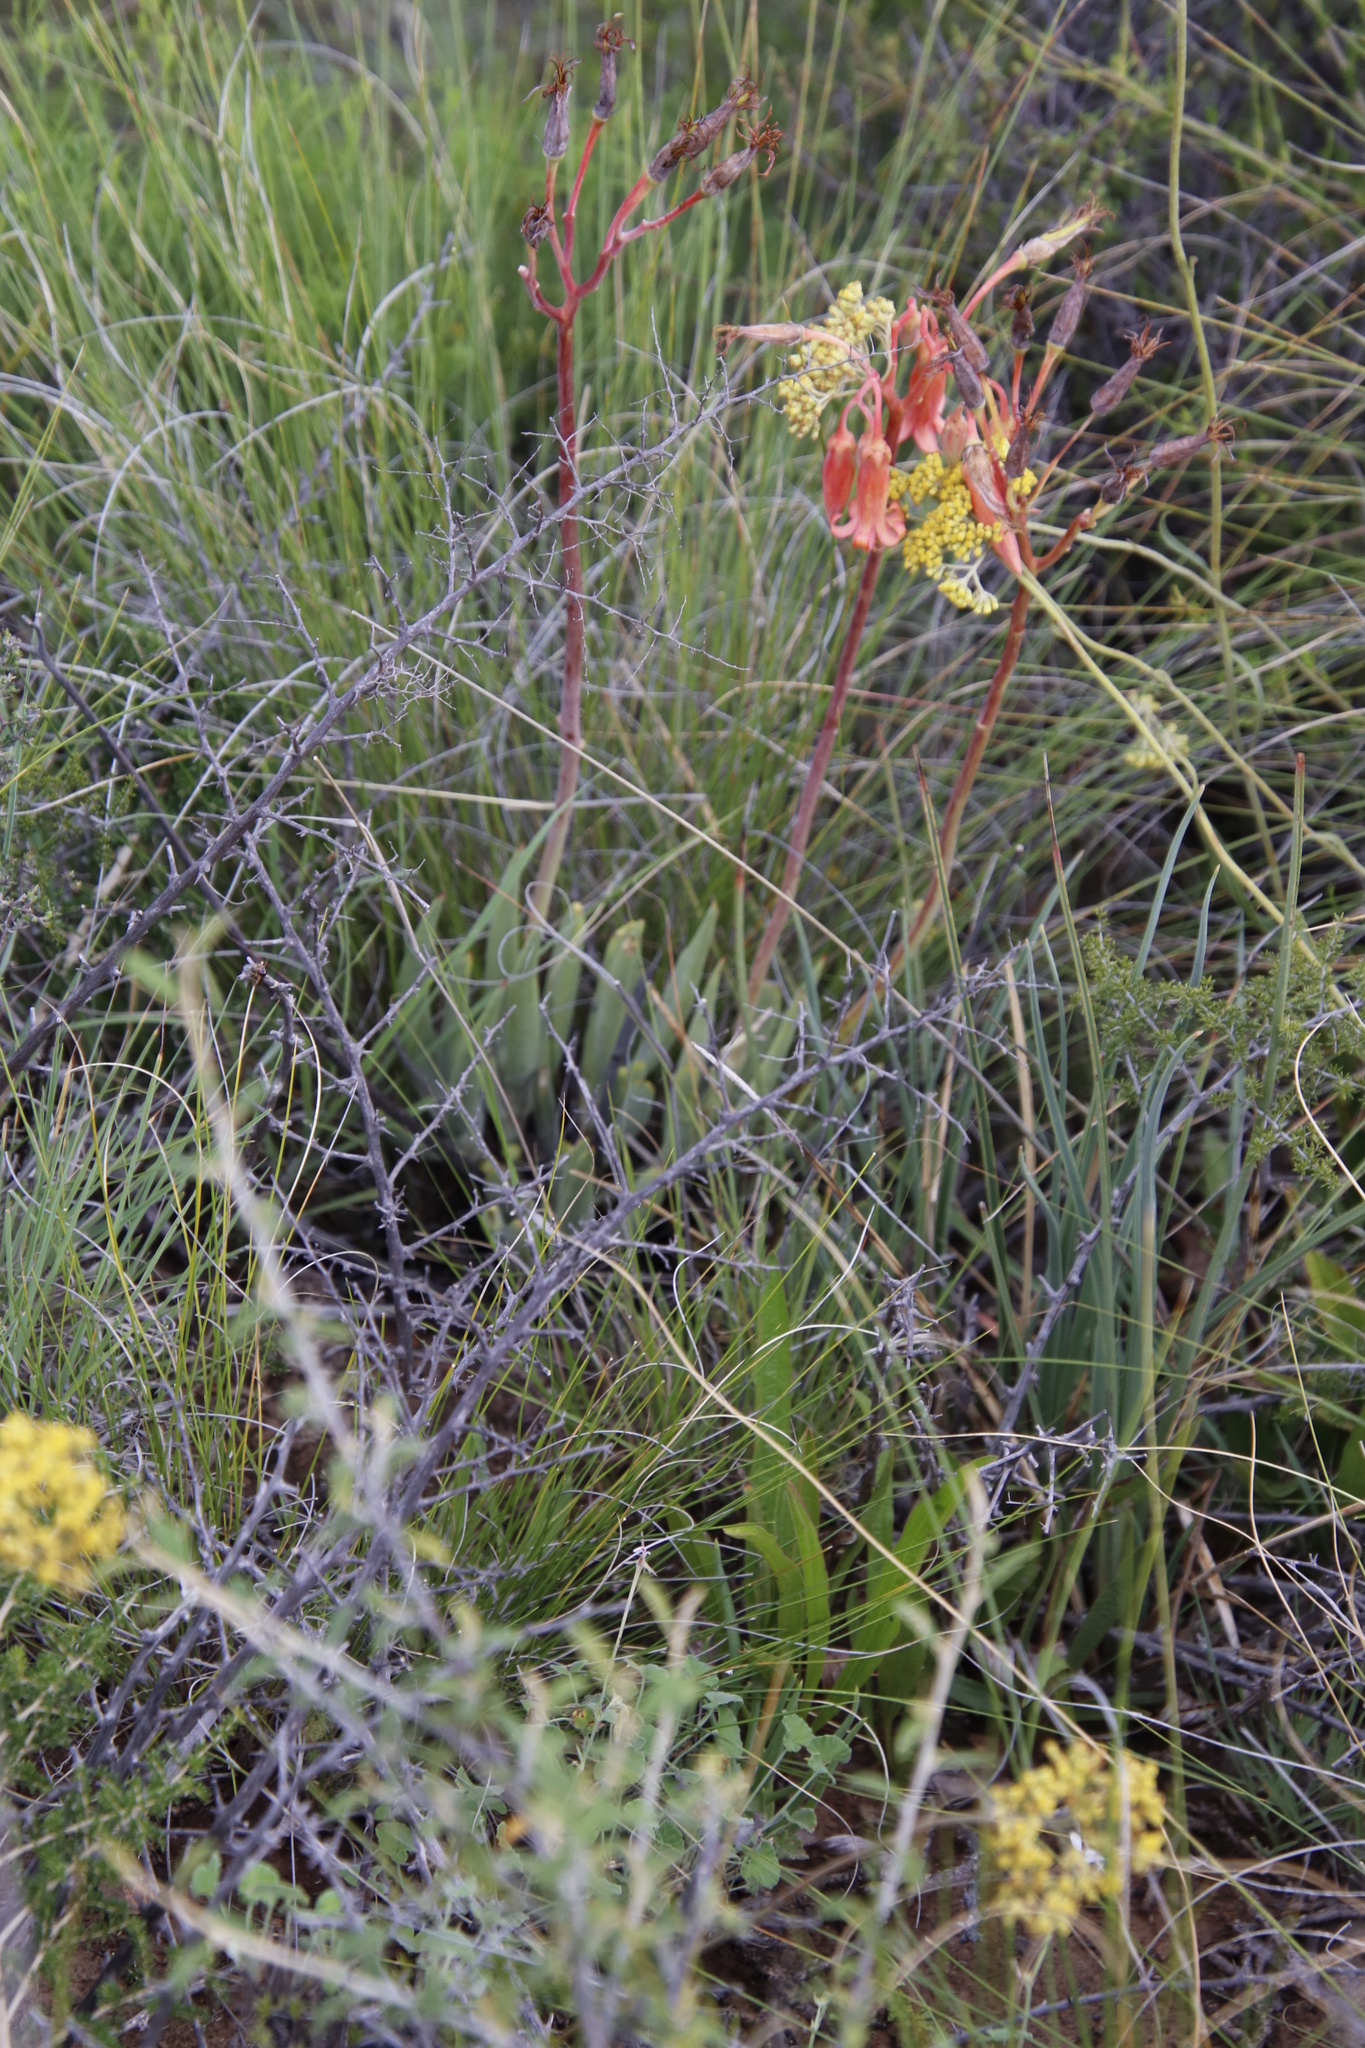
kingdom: Plantae
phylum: Tracheophyta
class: Magnoliopsida
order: Saxifragales
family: Crassulaceae
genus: Cotyledon
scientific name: Cotyledon orbiculata
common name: Pig's ear
